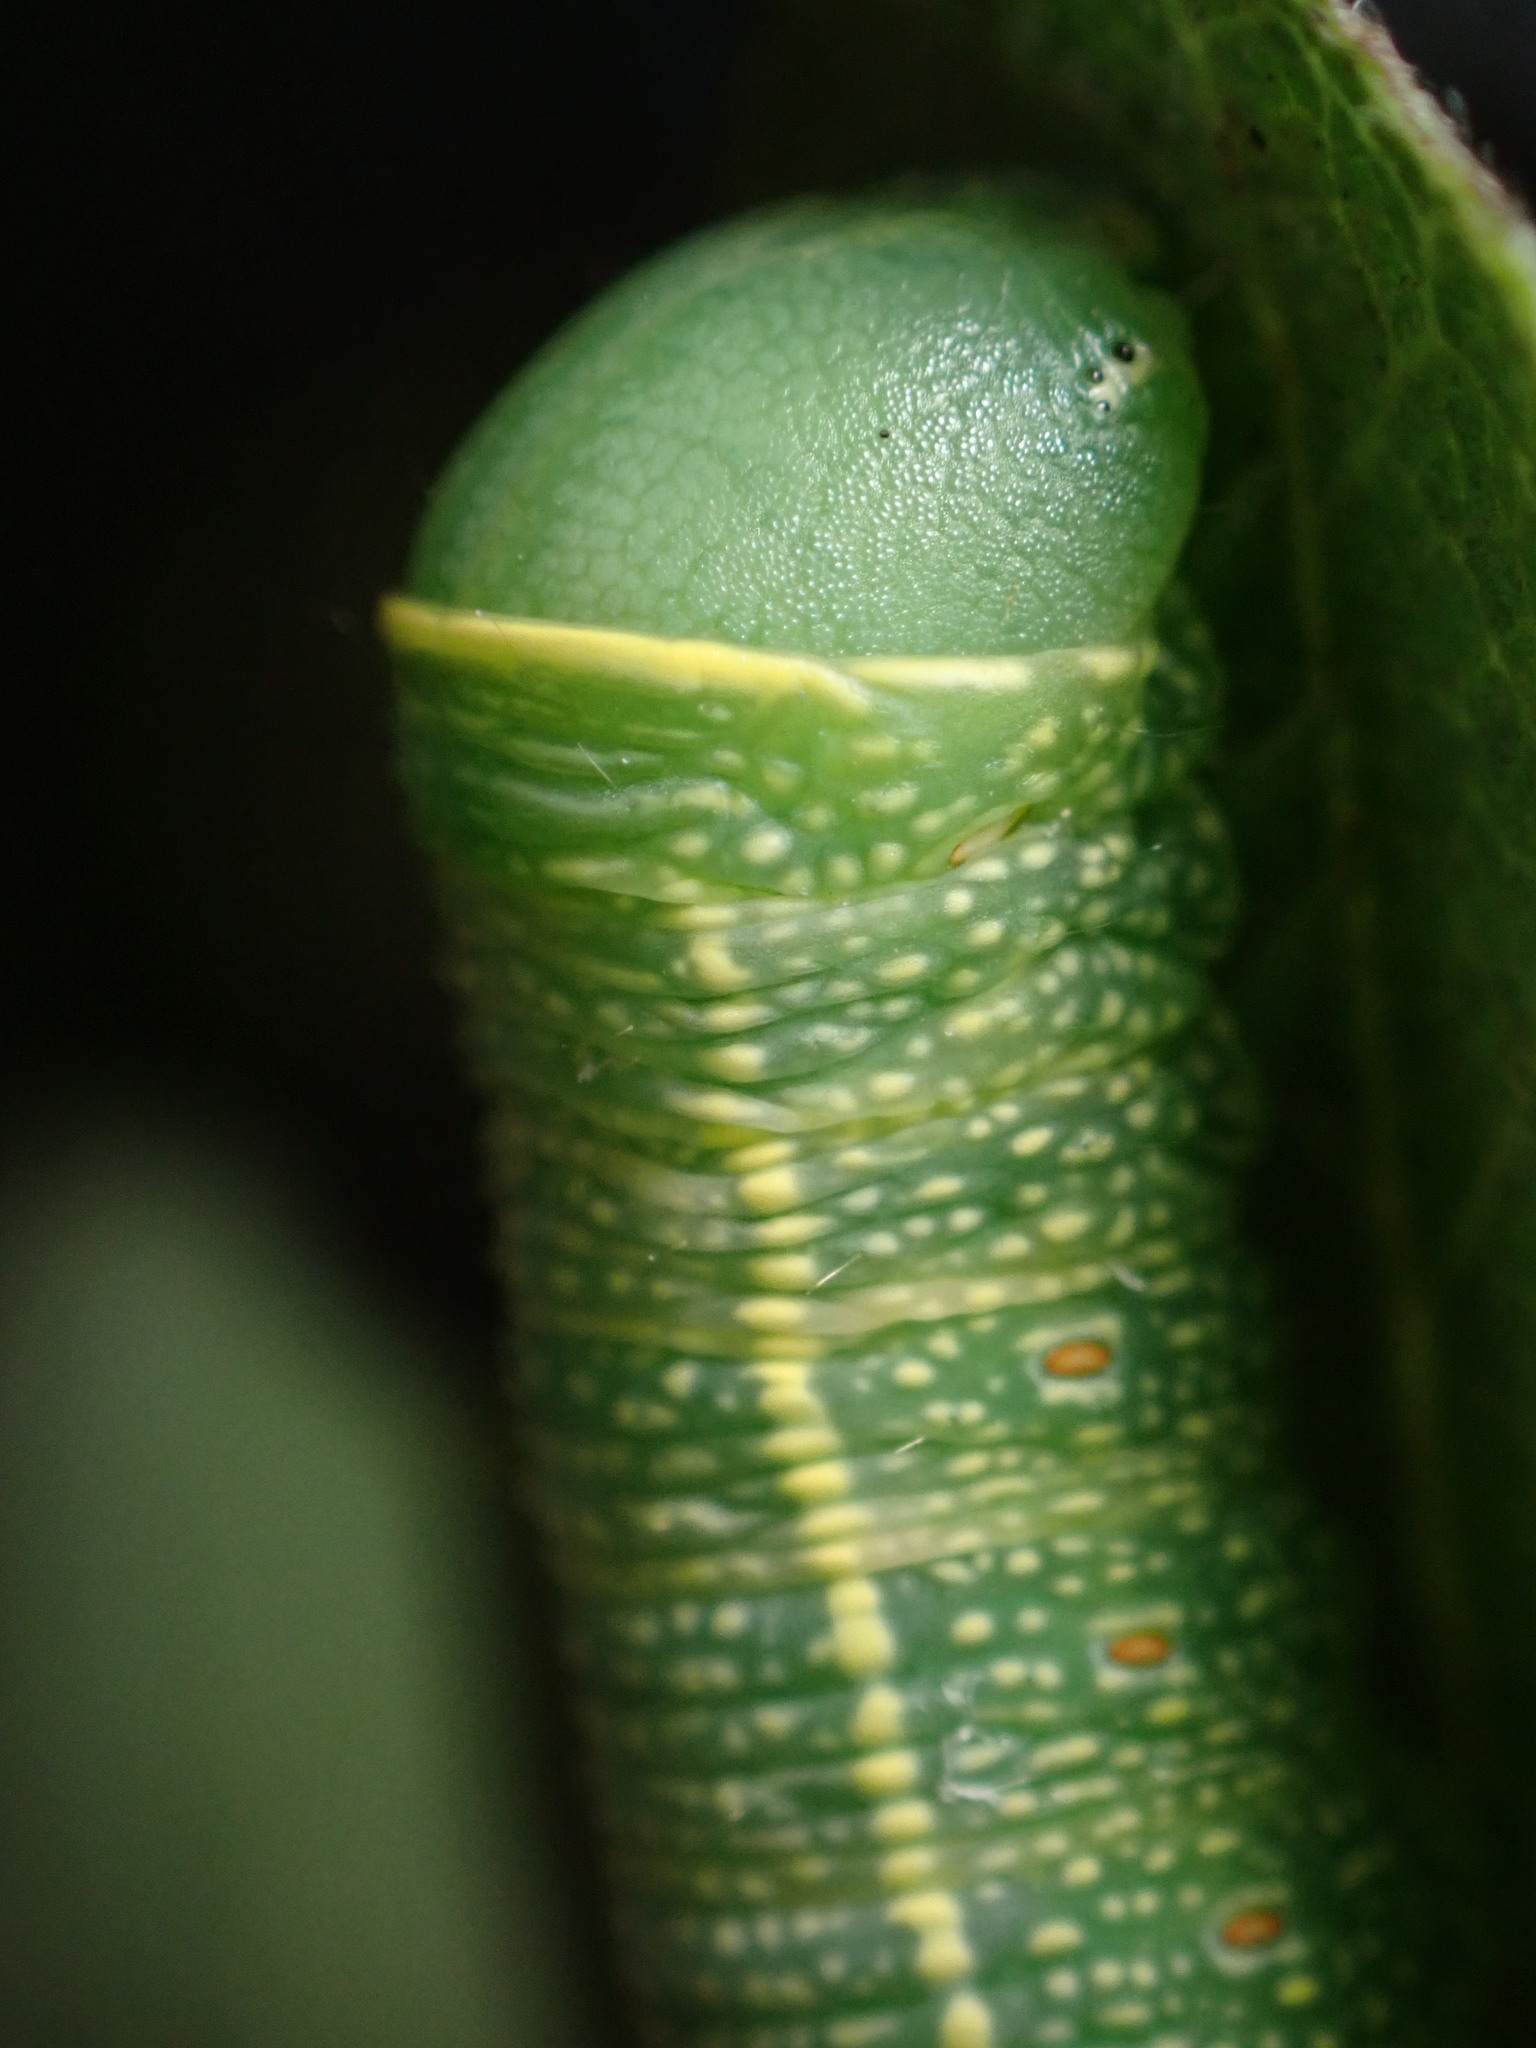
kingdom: Animalia
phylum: Arthropoda
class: Insecta
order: Lepidoptera
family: Notodontidae
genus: Nadata
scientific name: Nadata gibbosa
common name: White-dotted prominent
